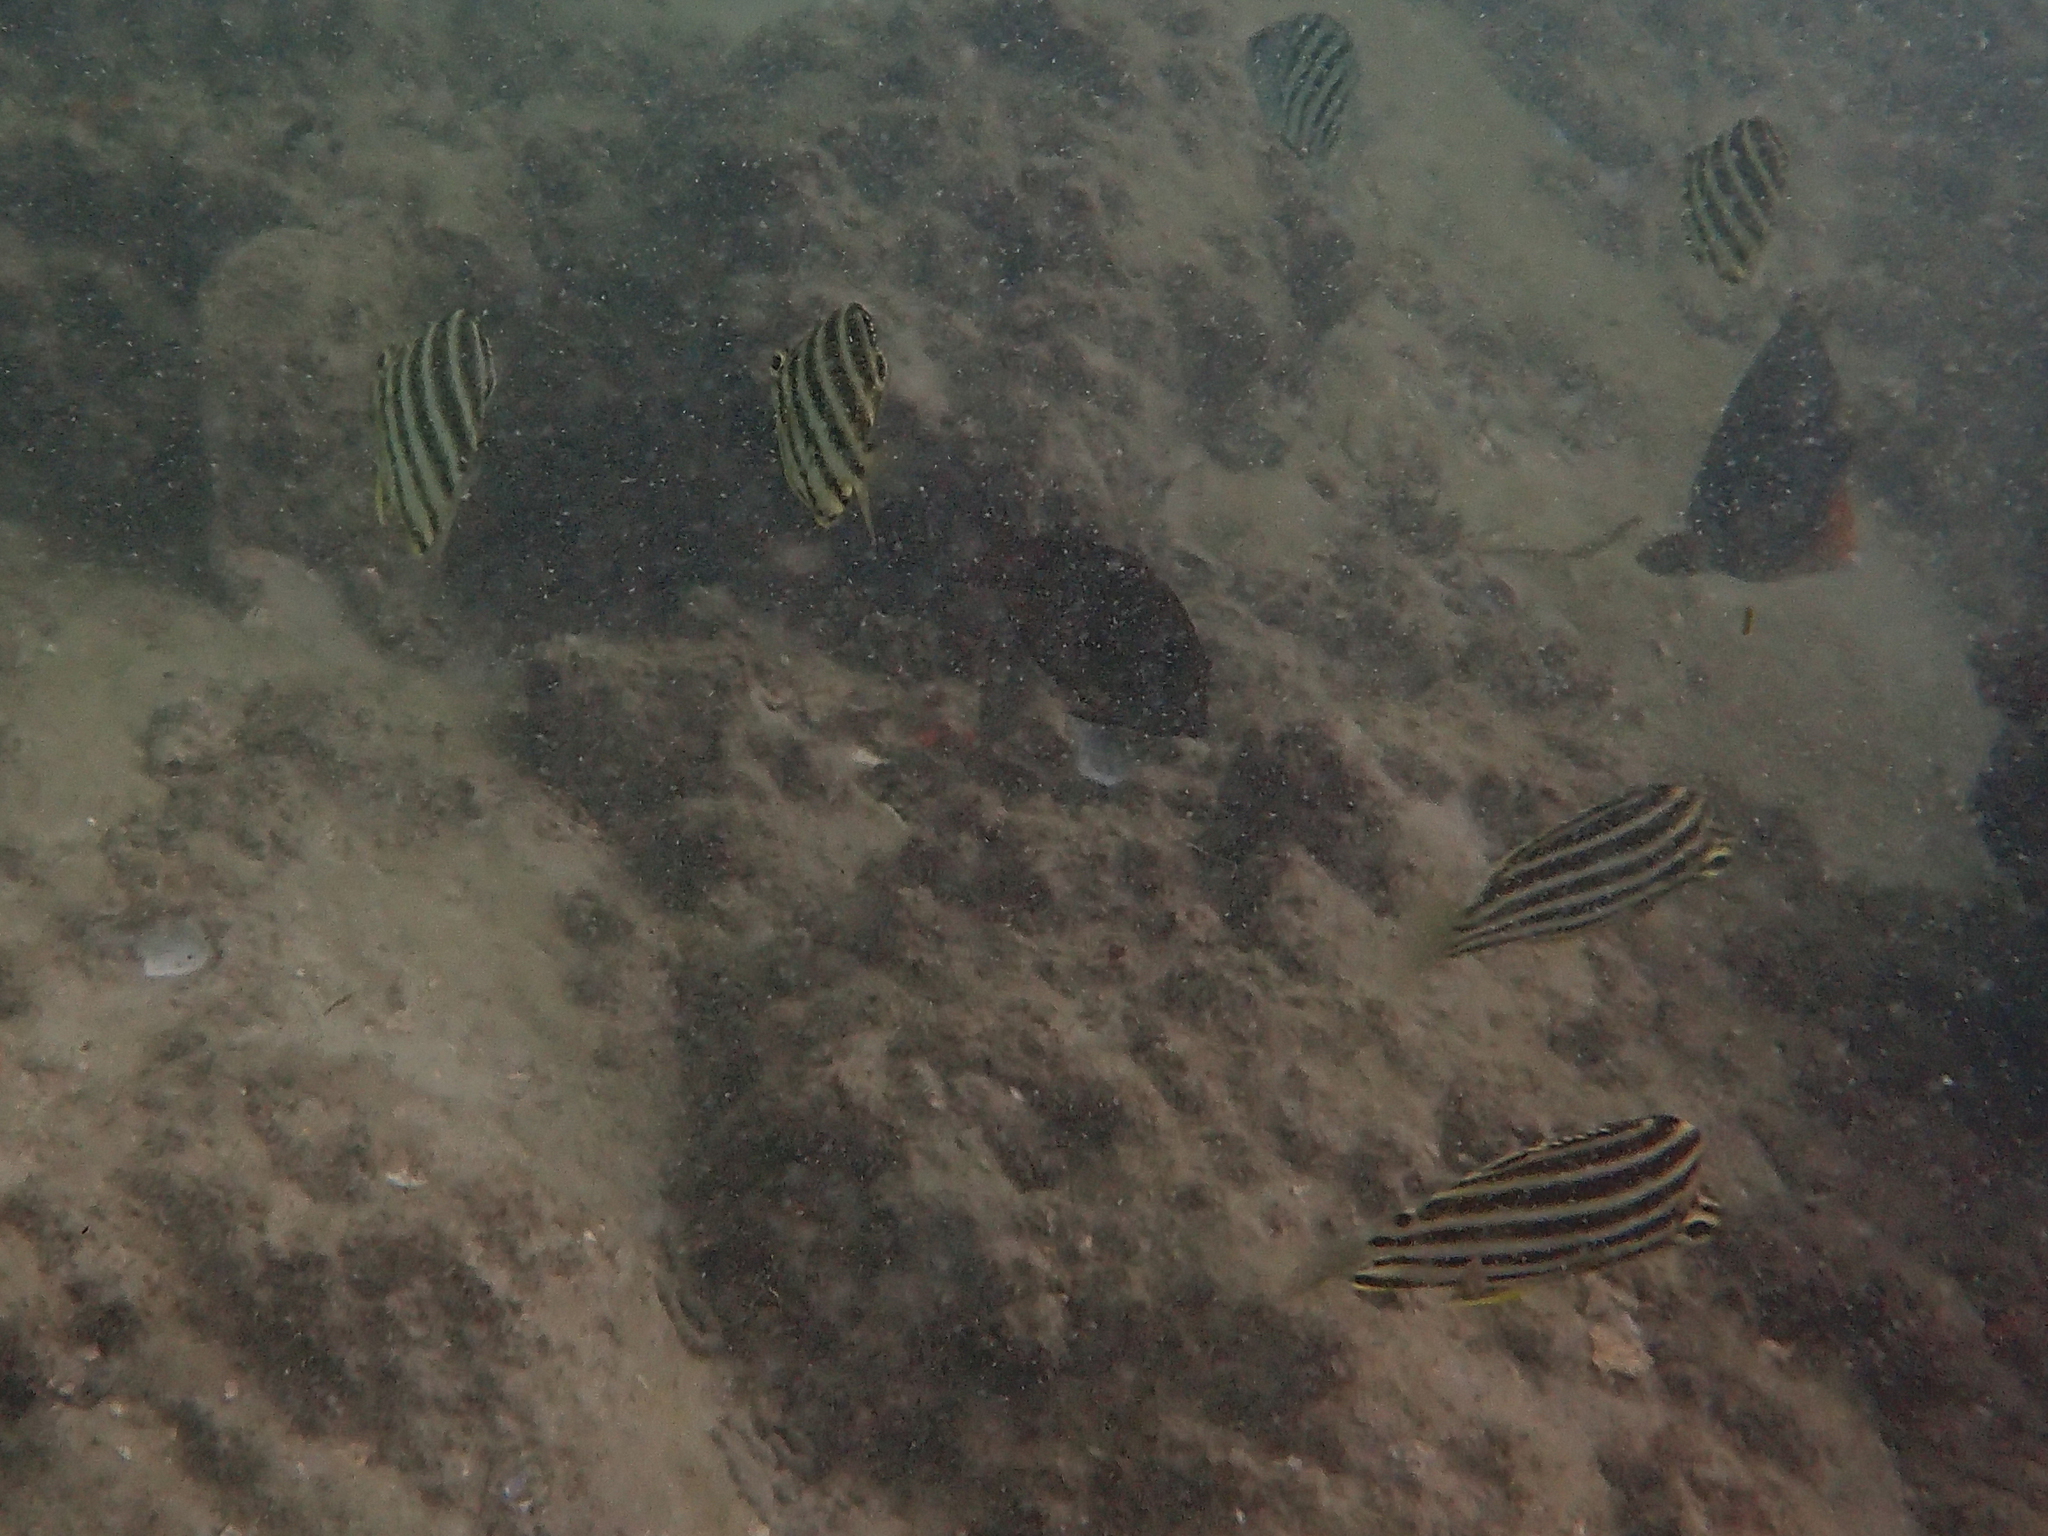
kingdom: Animalia
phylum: Chordata
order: Perciformes
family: Kyphosidae
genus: Microcanthus
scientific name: Microcanthus joyceae
